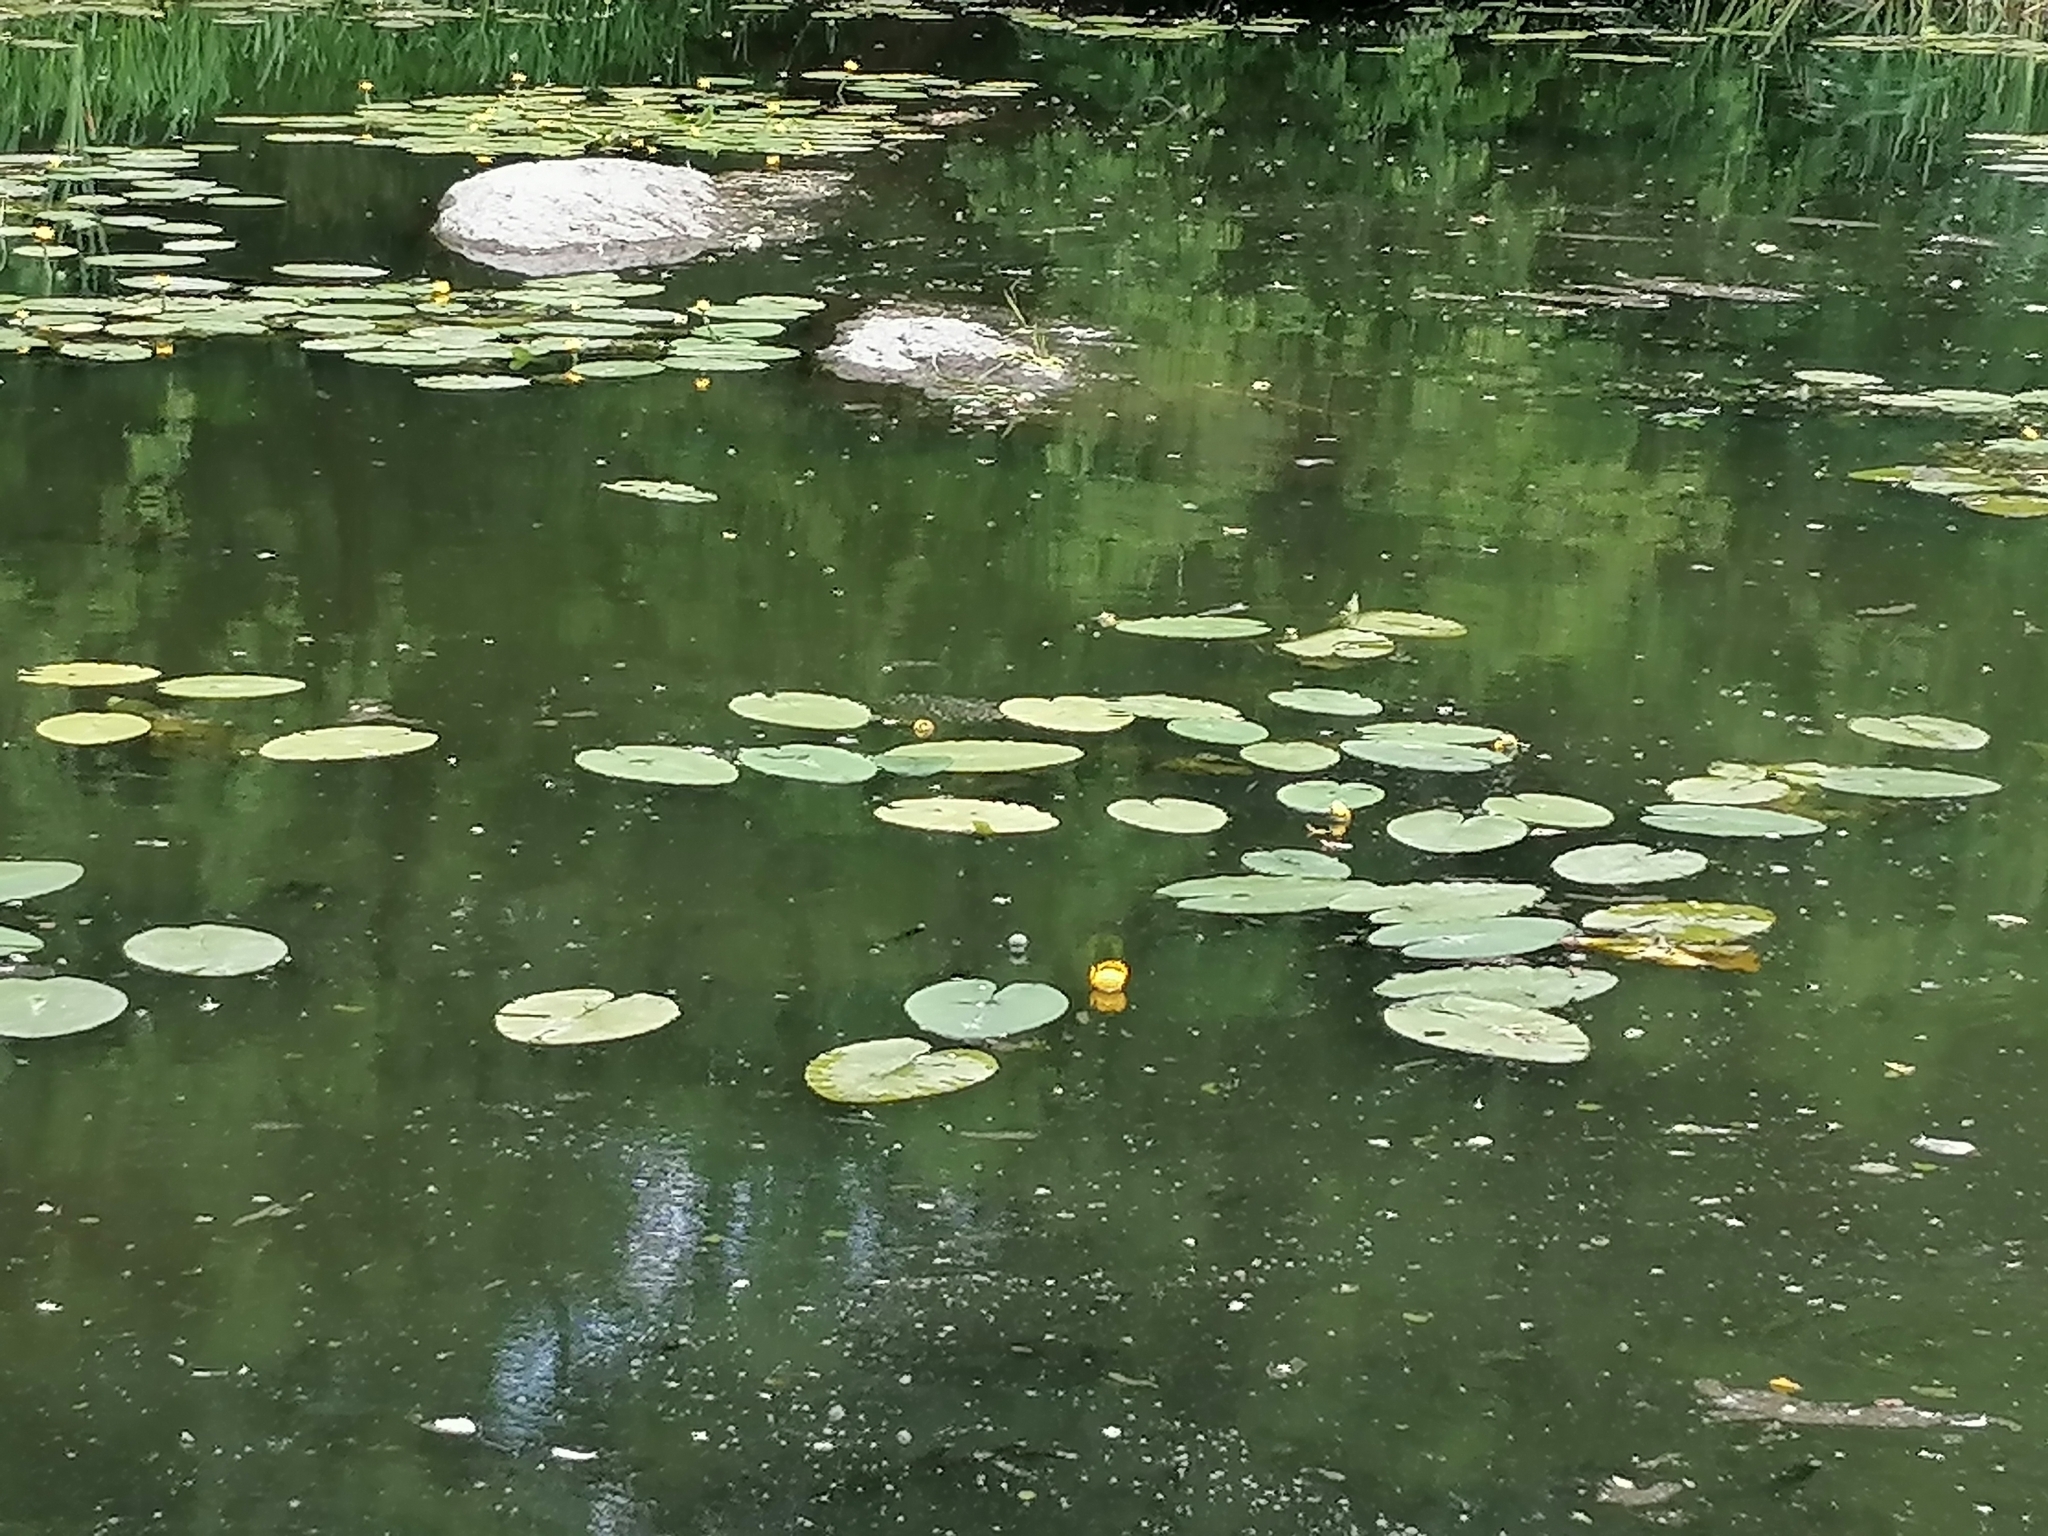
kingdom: Plantae
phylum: Tracheophyta
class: Magnoliopsida
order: Nymphaeales
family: Nymphaeaceae
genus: Nuphar
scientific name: Nuphar lutea
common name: Yellow water-lily
